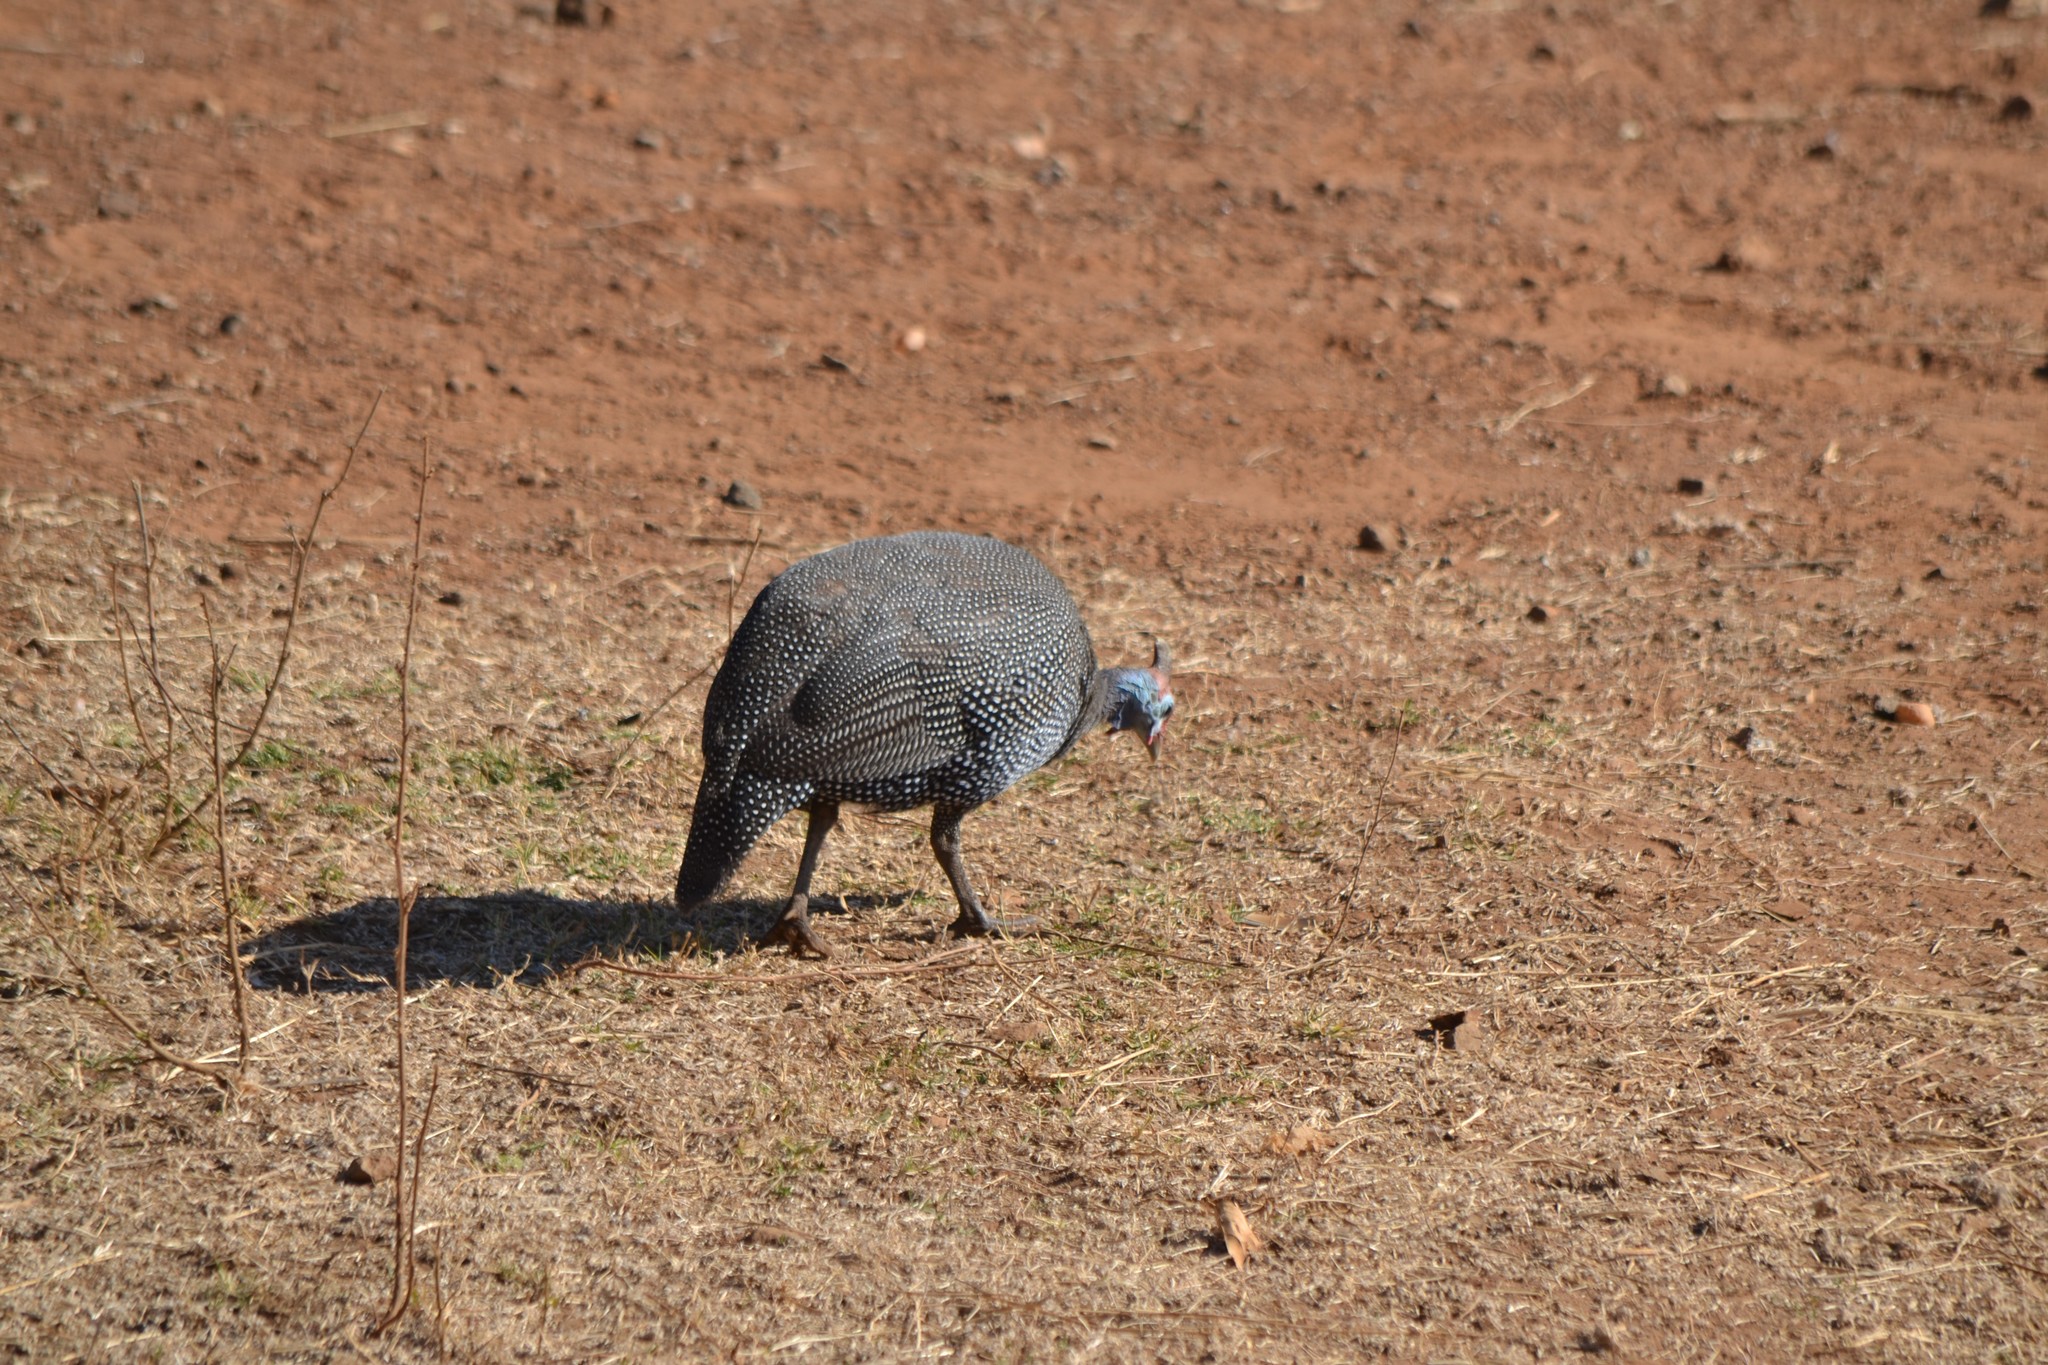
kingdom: Animalia
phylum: Chordata
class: Aves
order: Galliformes
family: Numididae
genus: Numida
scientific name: Numida meleagris
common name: Helmeted guineafowl
